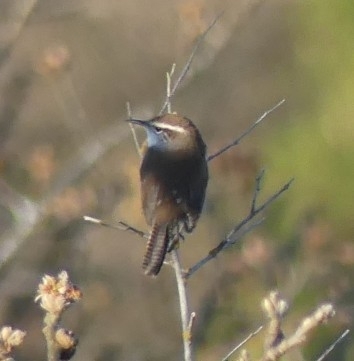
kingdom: Animalia
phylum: Chordata
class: Aves
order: Passeriformes
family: Troglodytidae
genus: Thryomanes
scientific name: Thryomanes bewickii
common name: Bewick's wren
